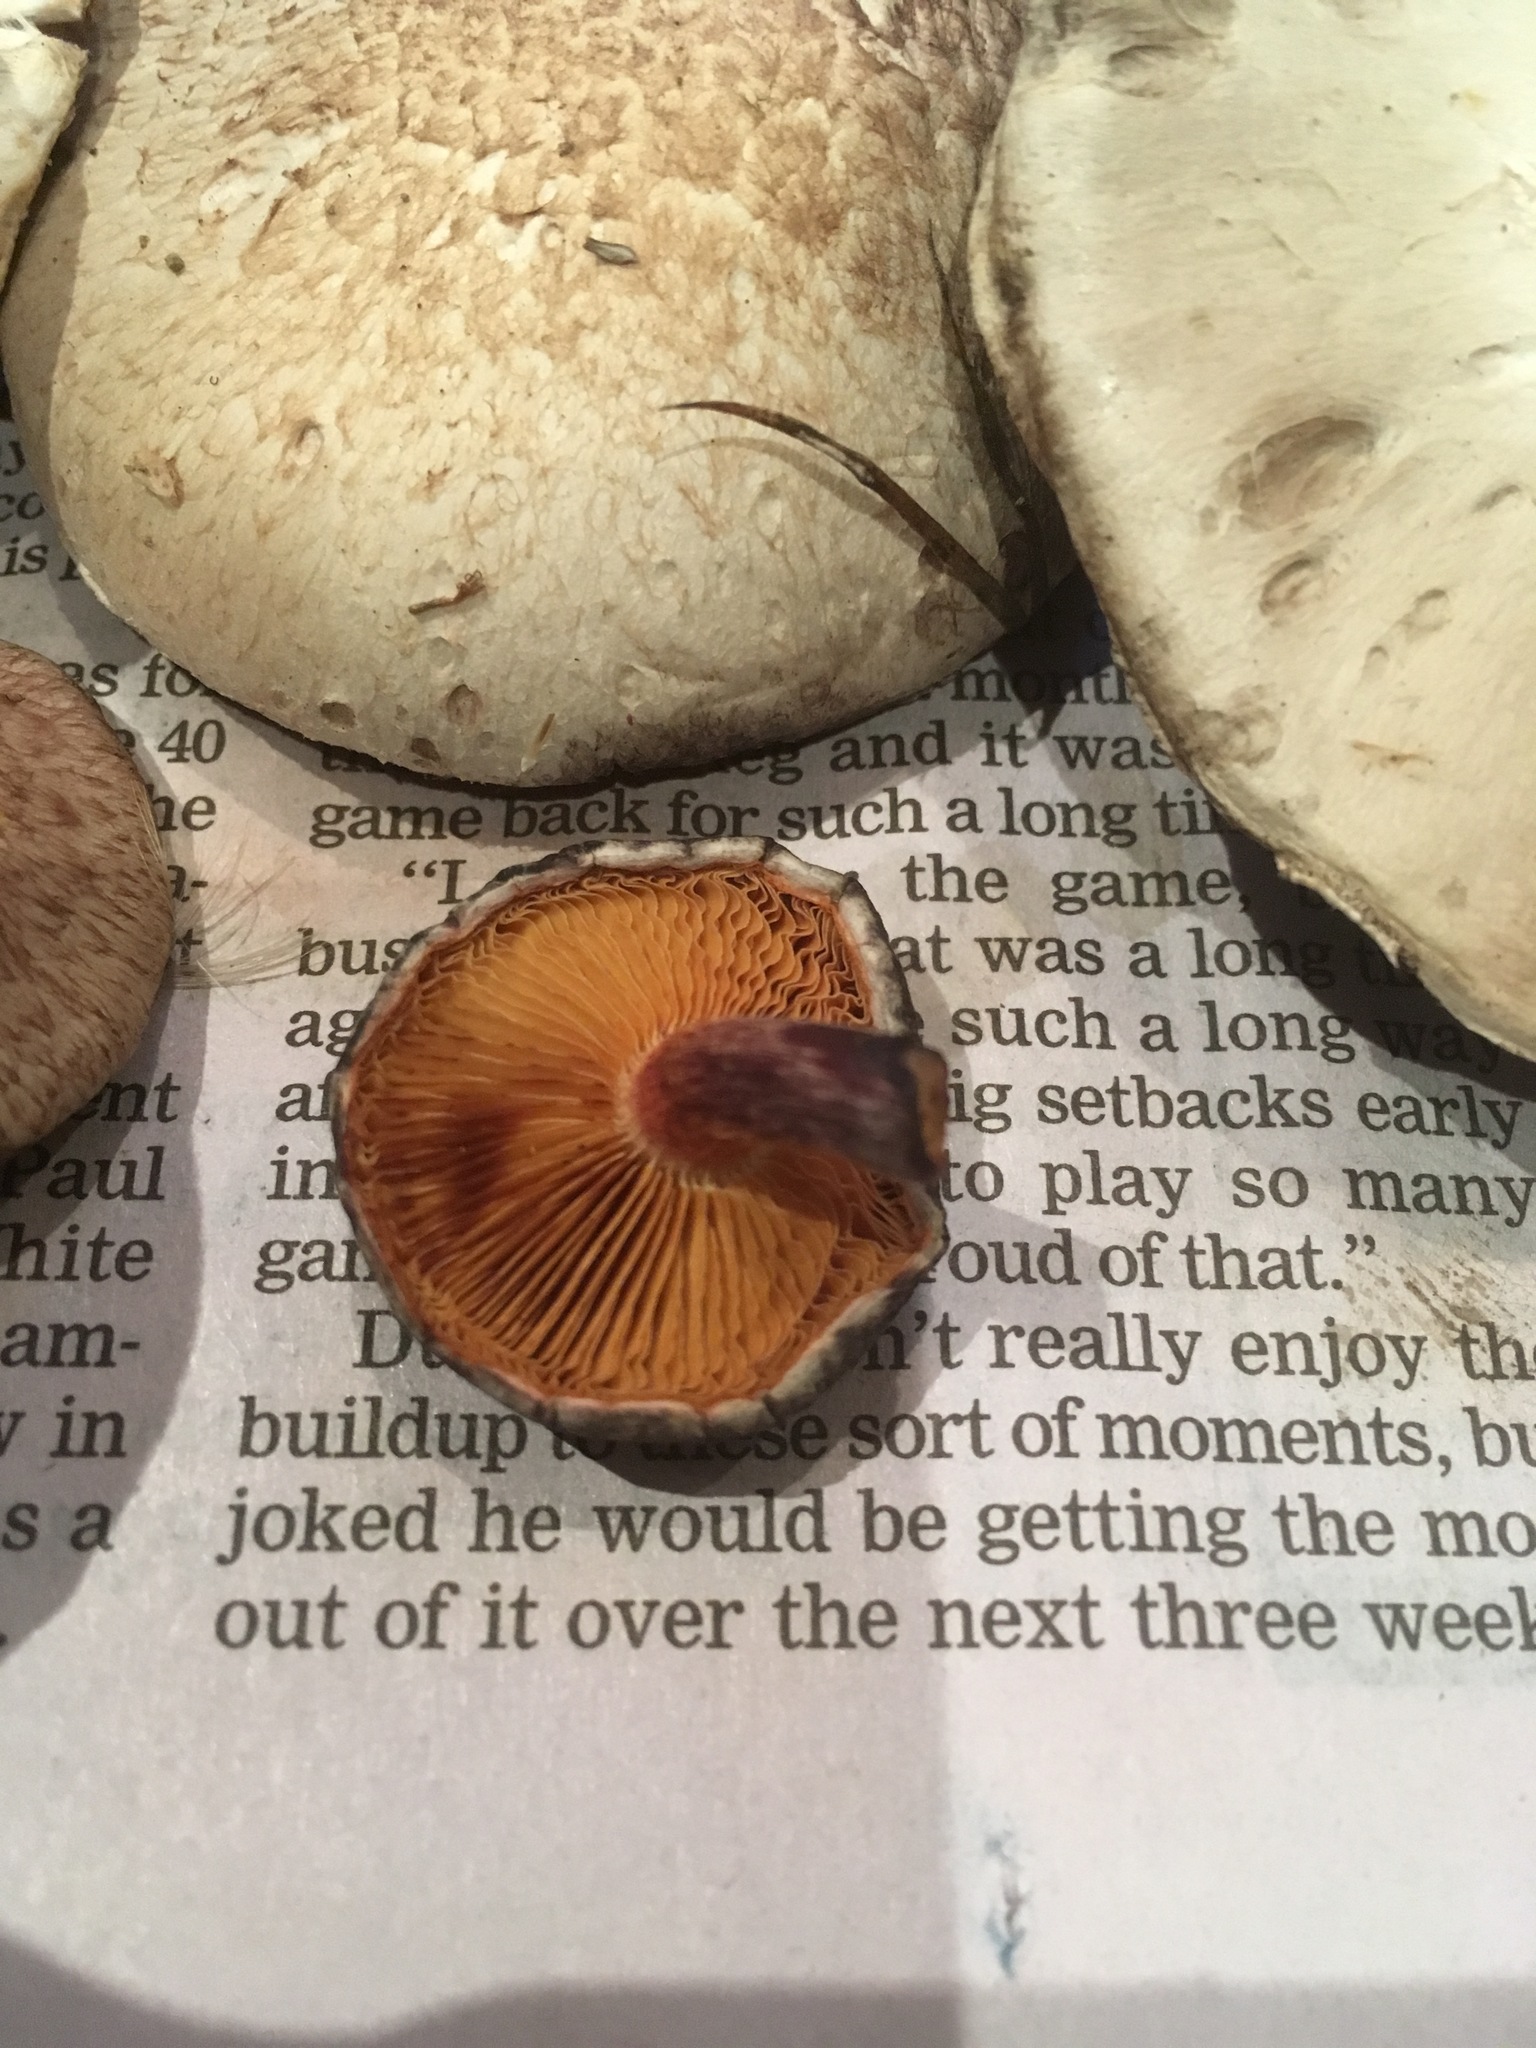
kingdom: Fungi
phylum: Basidiomycota
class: Agaricomycetes
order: Agaricales
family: Hymenogastraceae
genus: Gymnopilus
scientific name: Gymnopilus purpuratus
